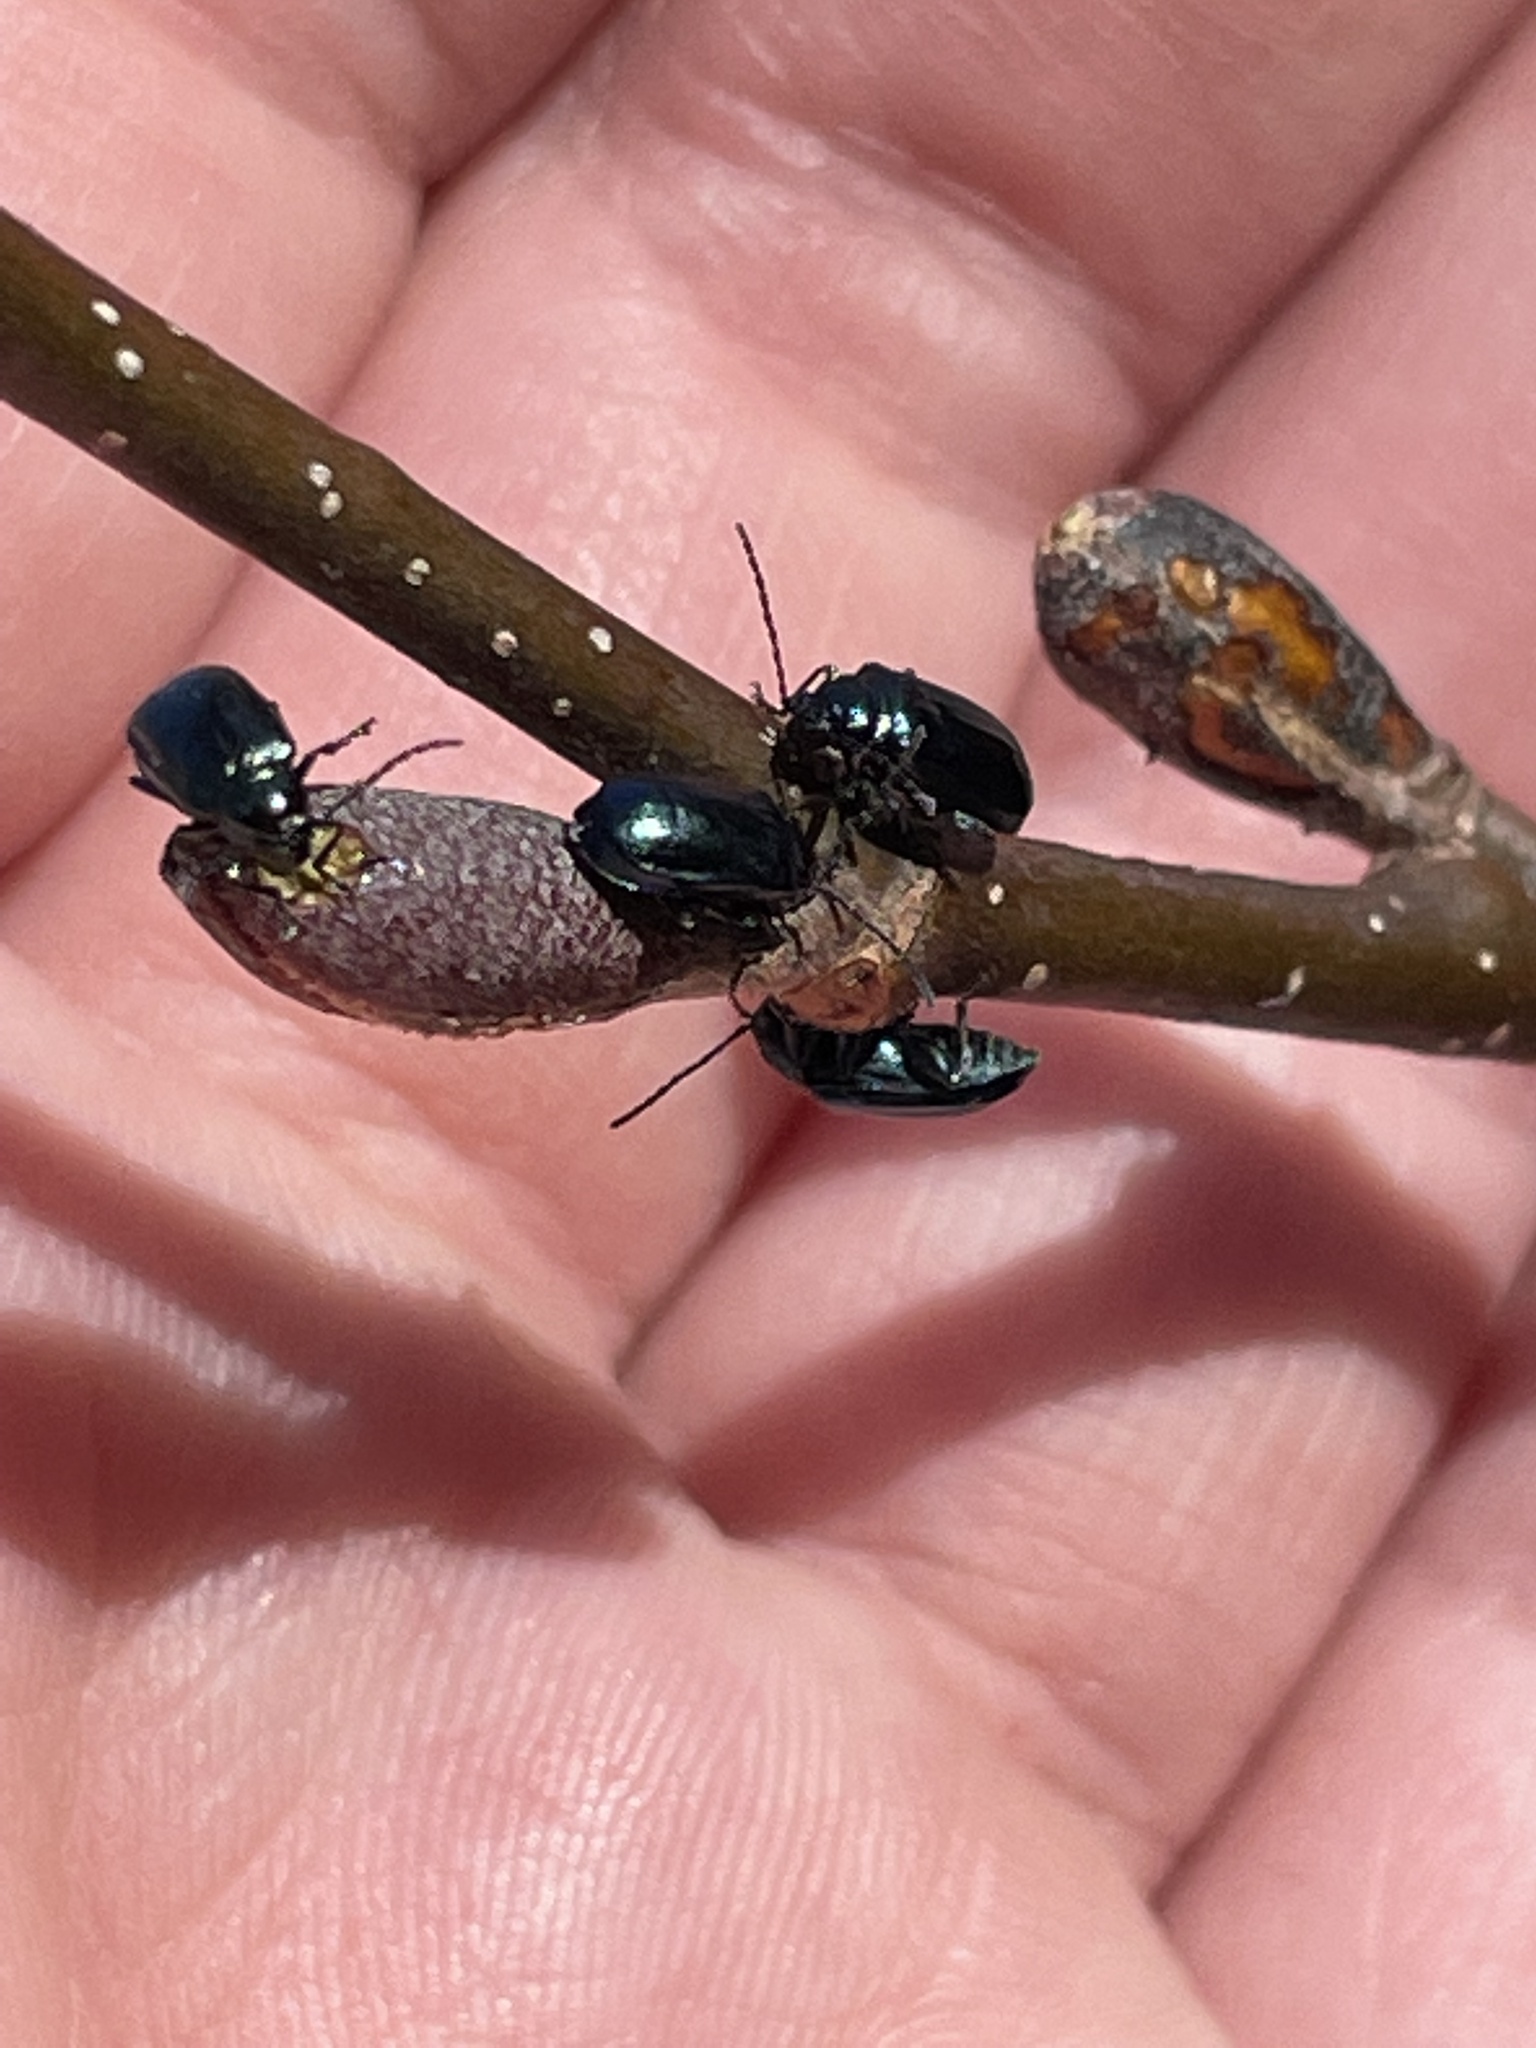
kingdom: Animalia
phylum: Arthropoda
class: Insecta
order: Coleoptera
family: Chrysomelidae
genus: Altica
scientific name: Altica ambiens
